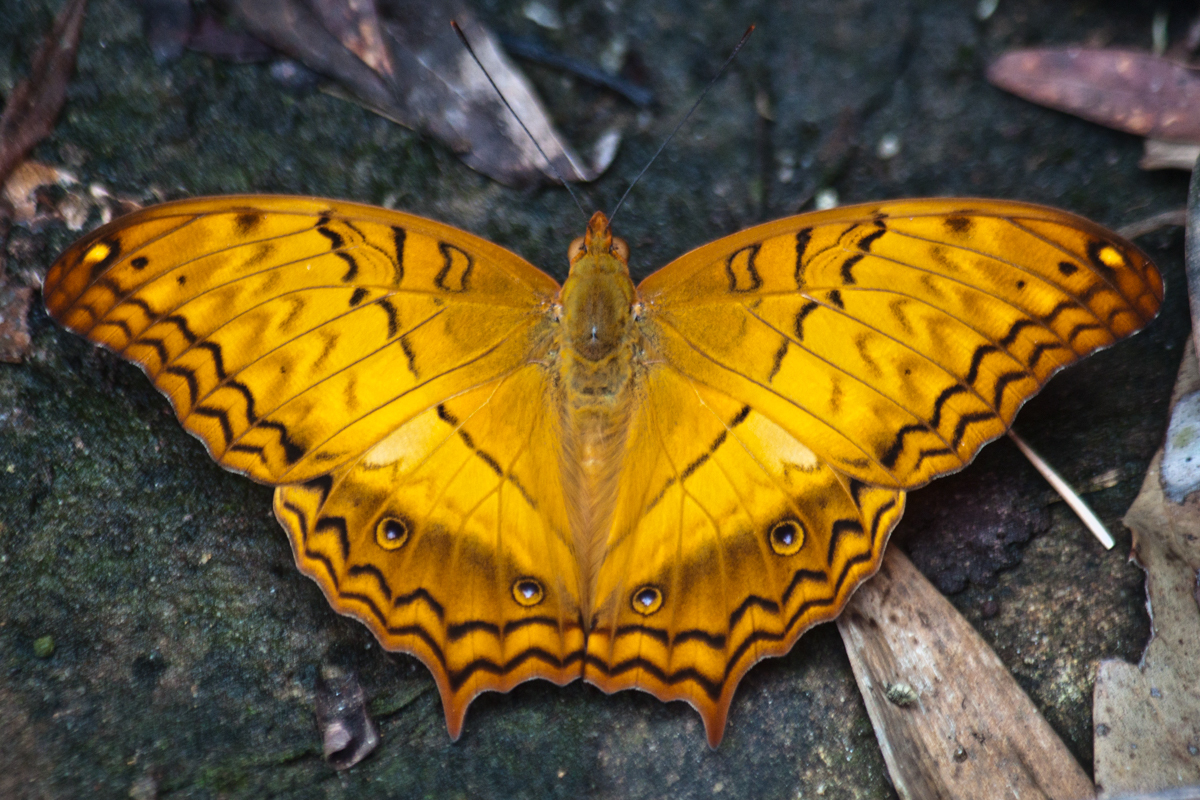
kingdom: Animalia
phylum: Arthropoda
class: Insecta
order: Lepidoptera
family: Nymphalidae
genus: Vindula
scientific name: Vindula erota
